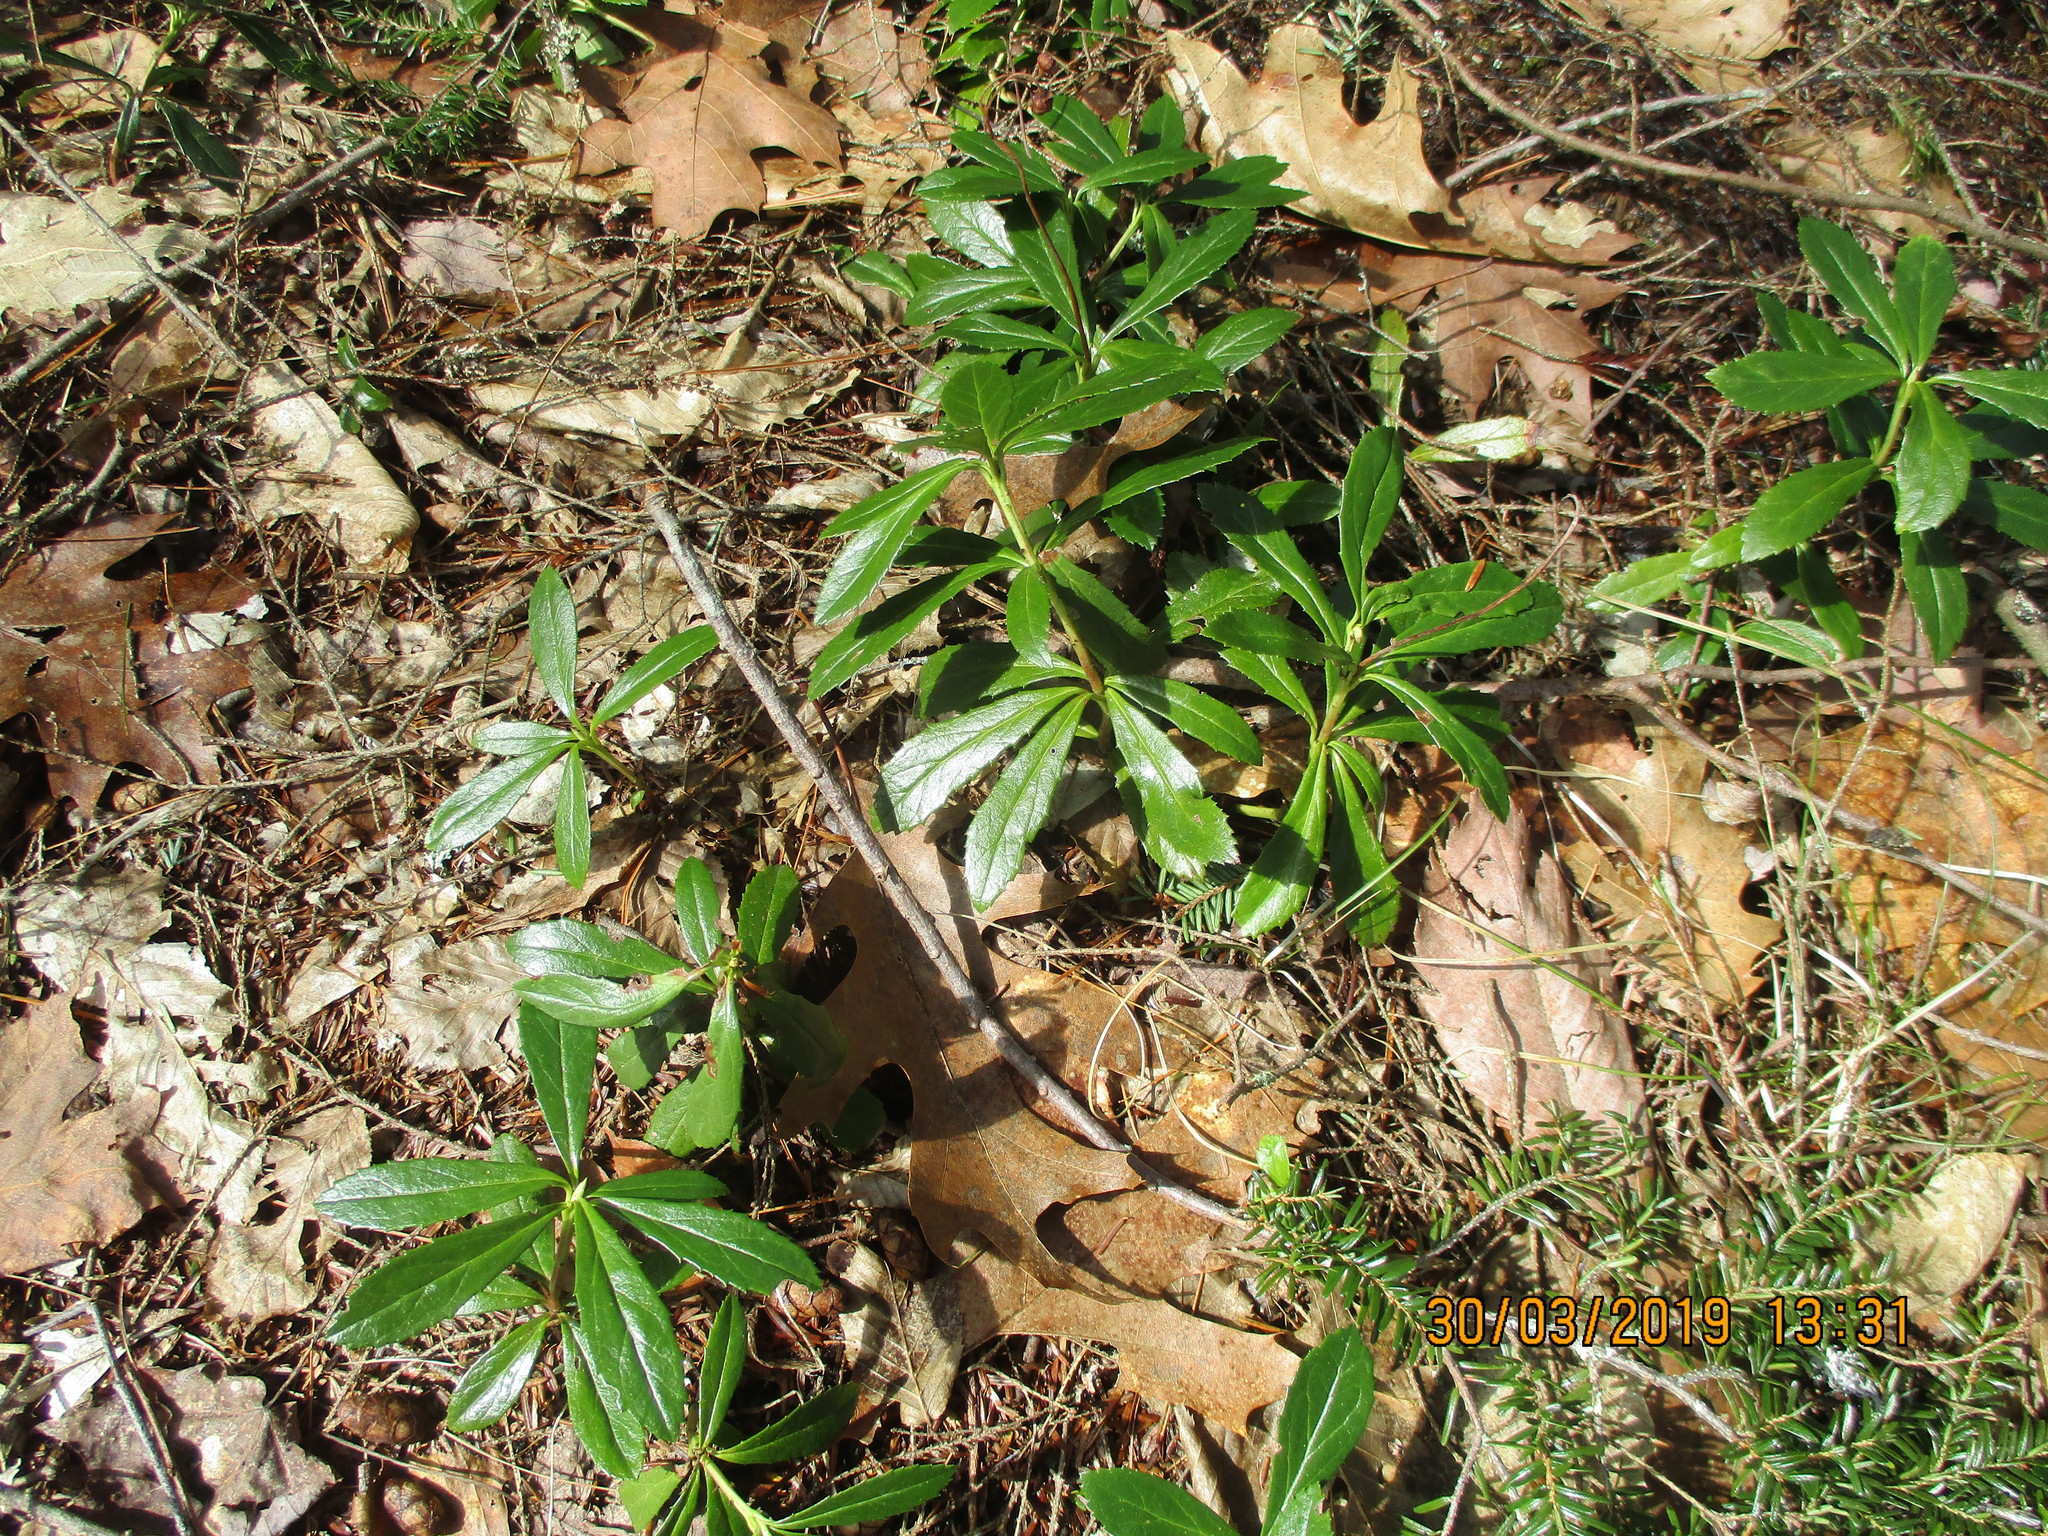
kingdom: Plantae
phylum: Tracheophyta
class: Magnoliopsida
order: Ericales
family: Ericaceae
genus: Chimaphila
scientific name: Chimaphila umbellata
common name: Pipsissewa
